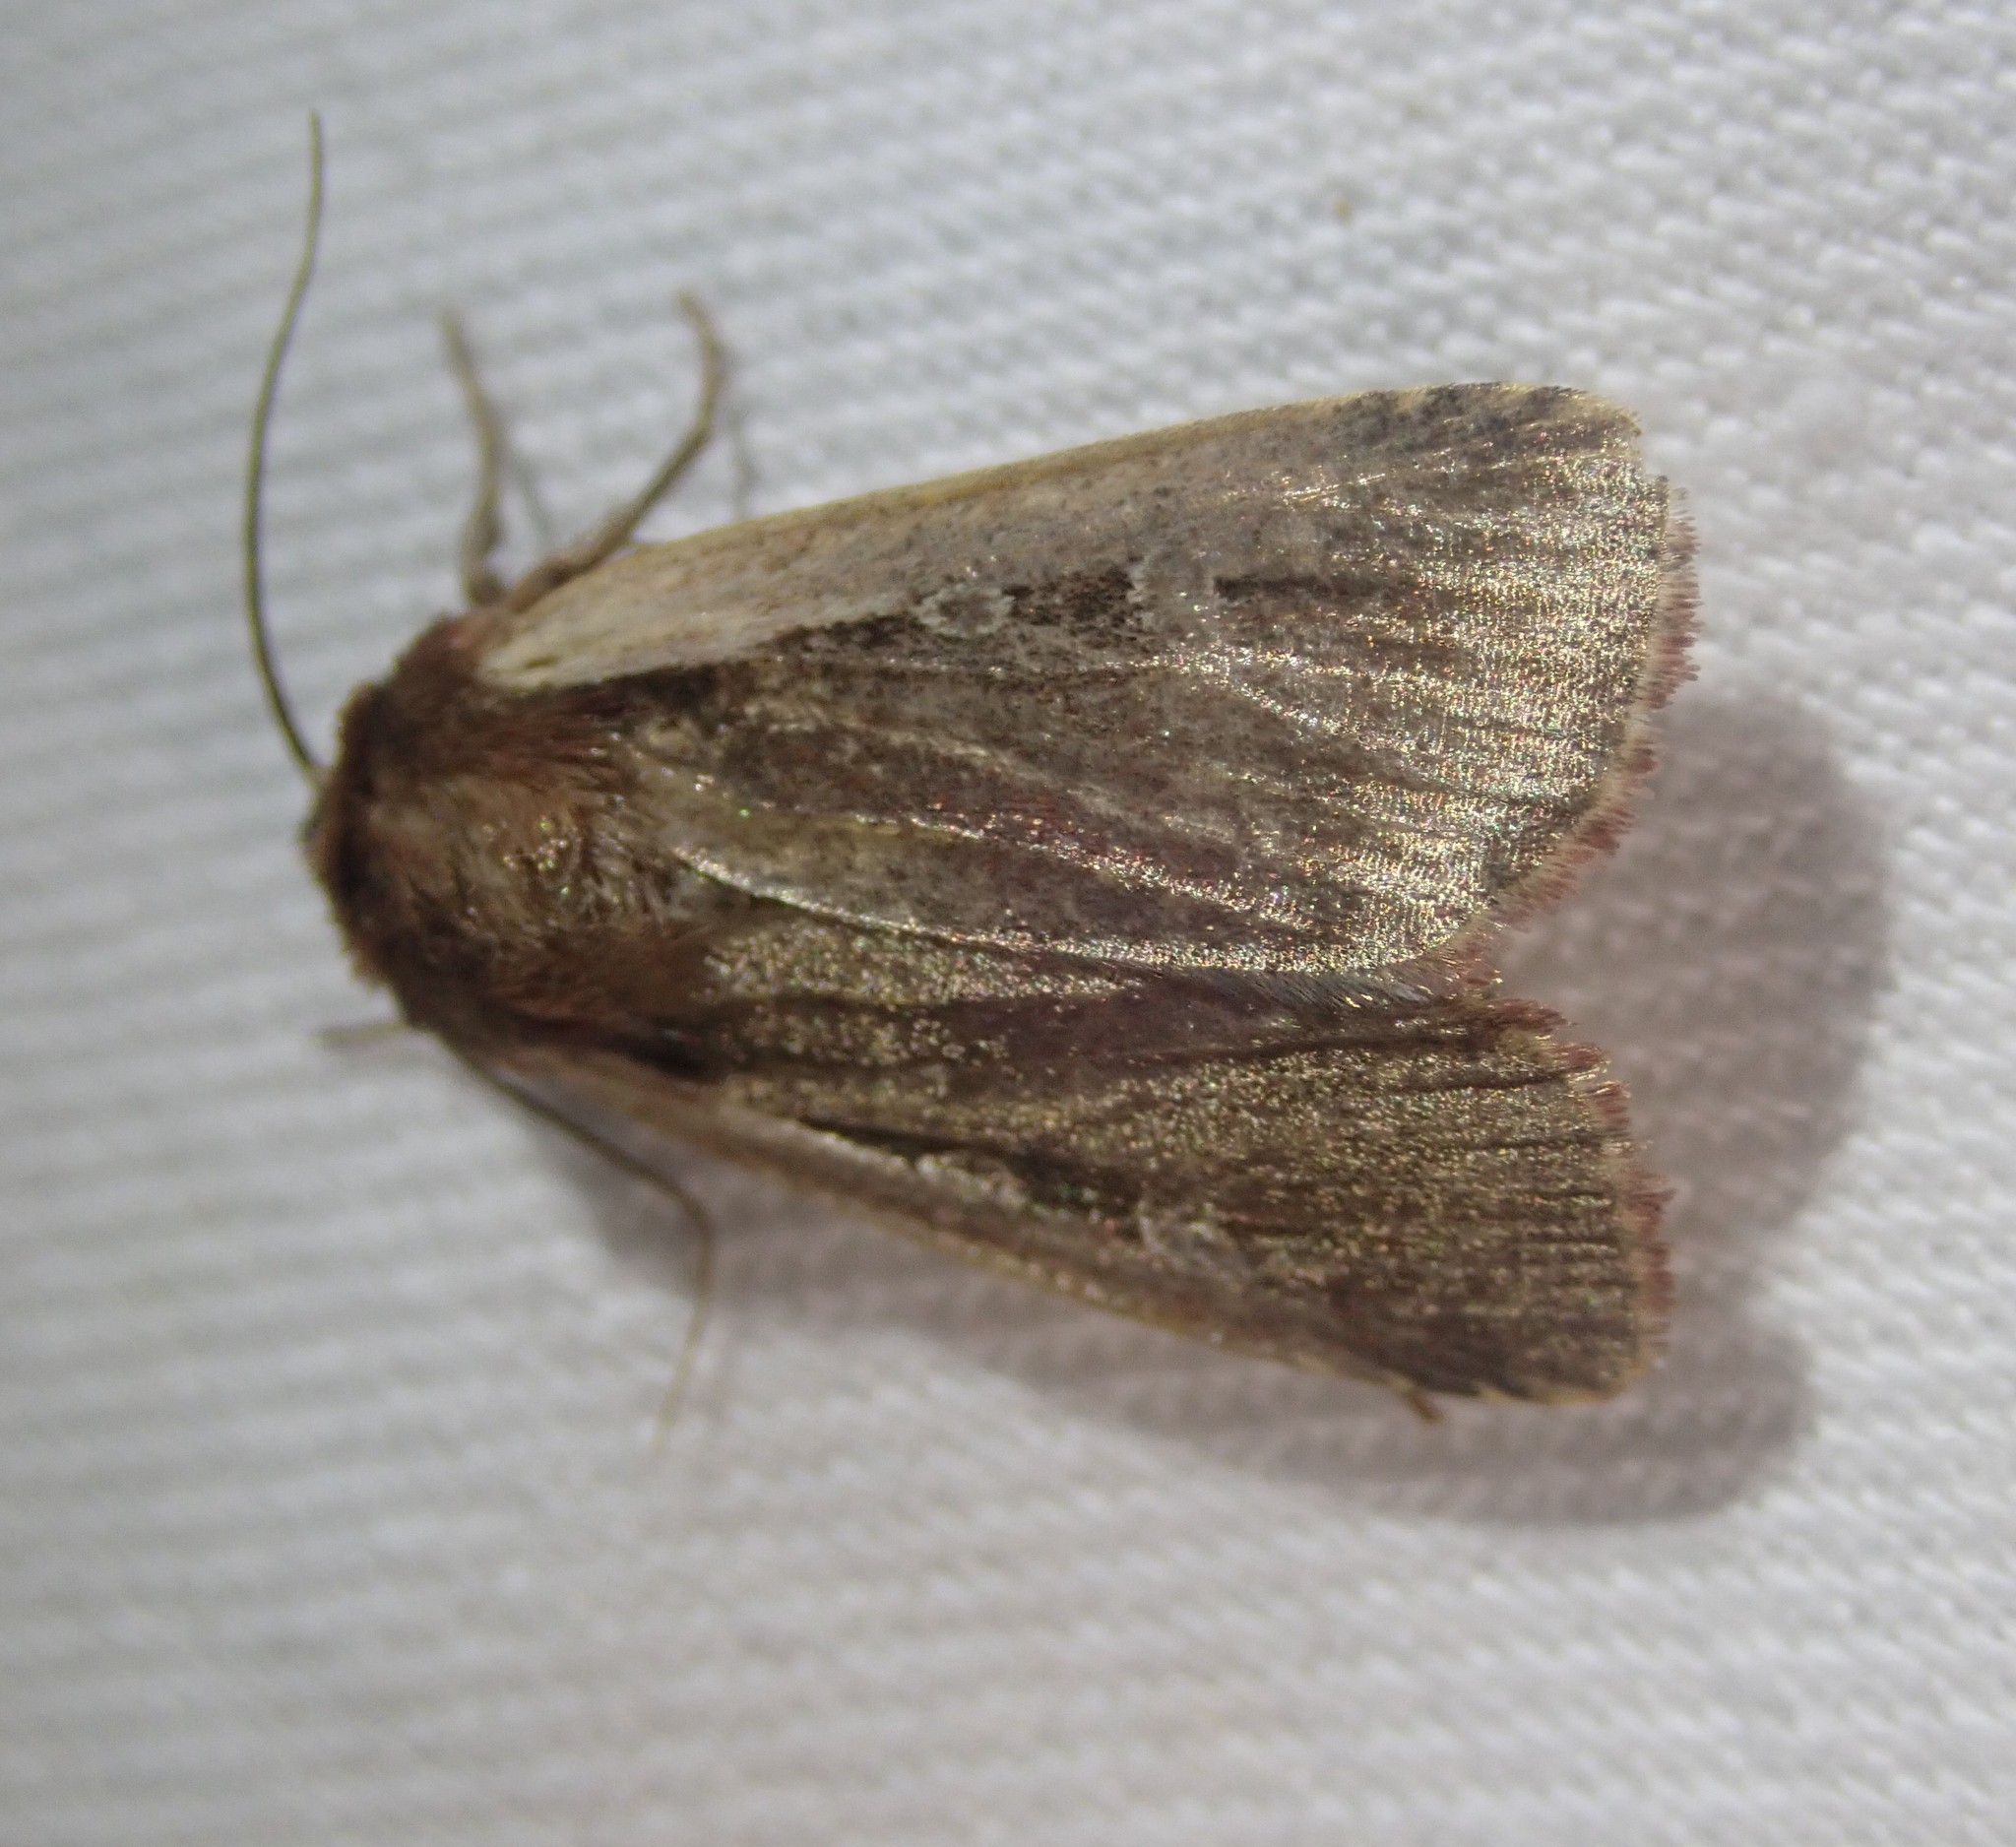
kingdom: Animalia
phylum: Arthropoda
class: Insecta
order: Lepidoptera
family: Noctuidae
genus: Ochropleura
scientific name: Ochropleura plecta
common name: Flame shoulder
